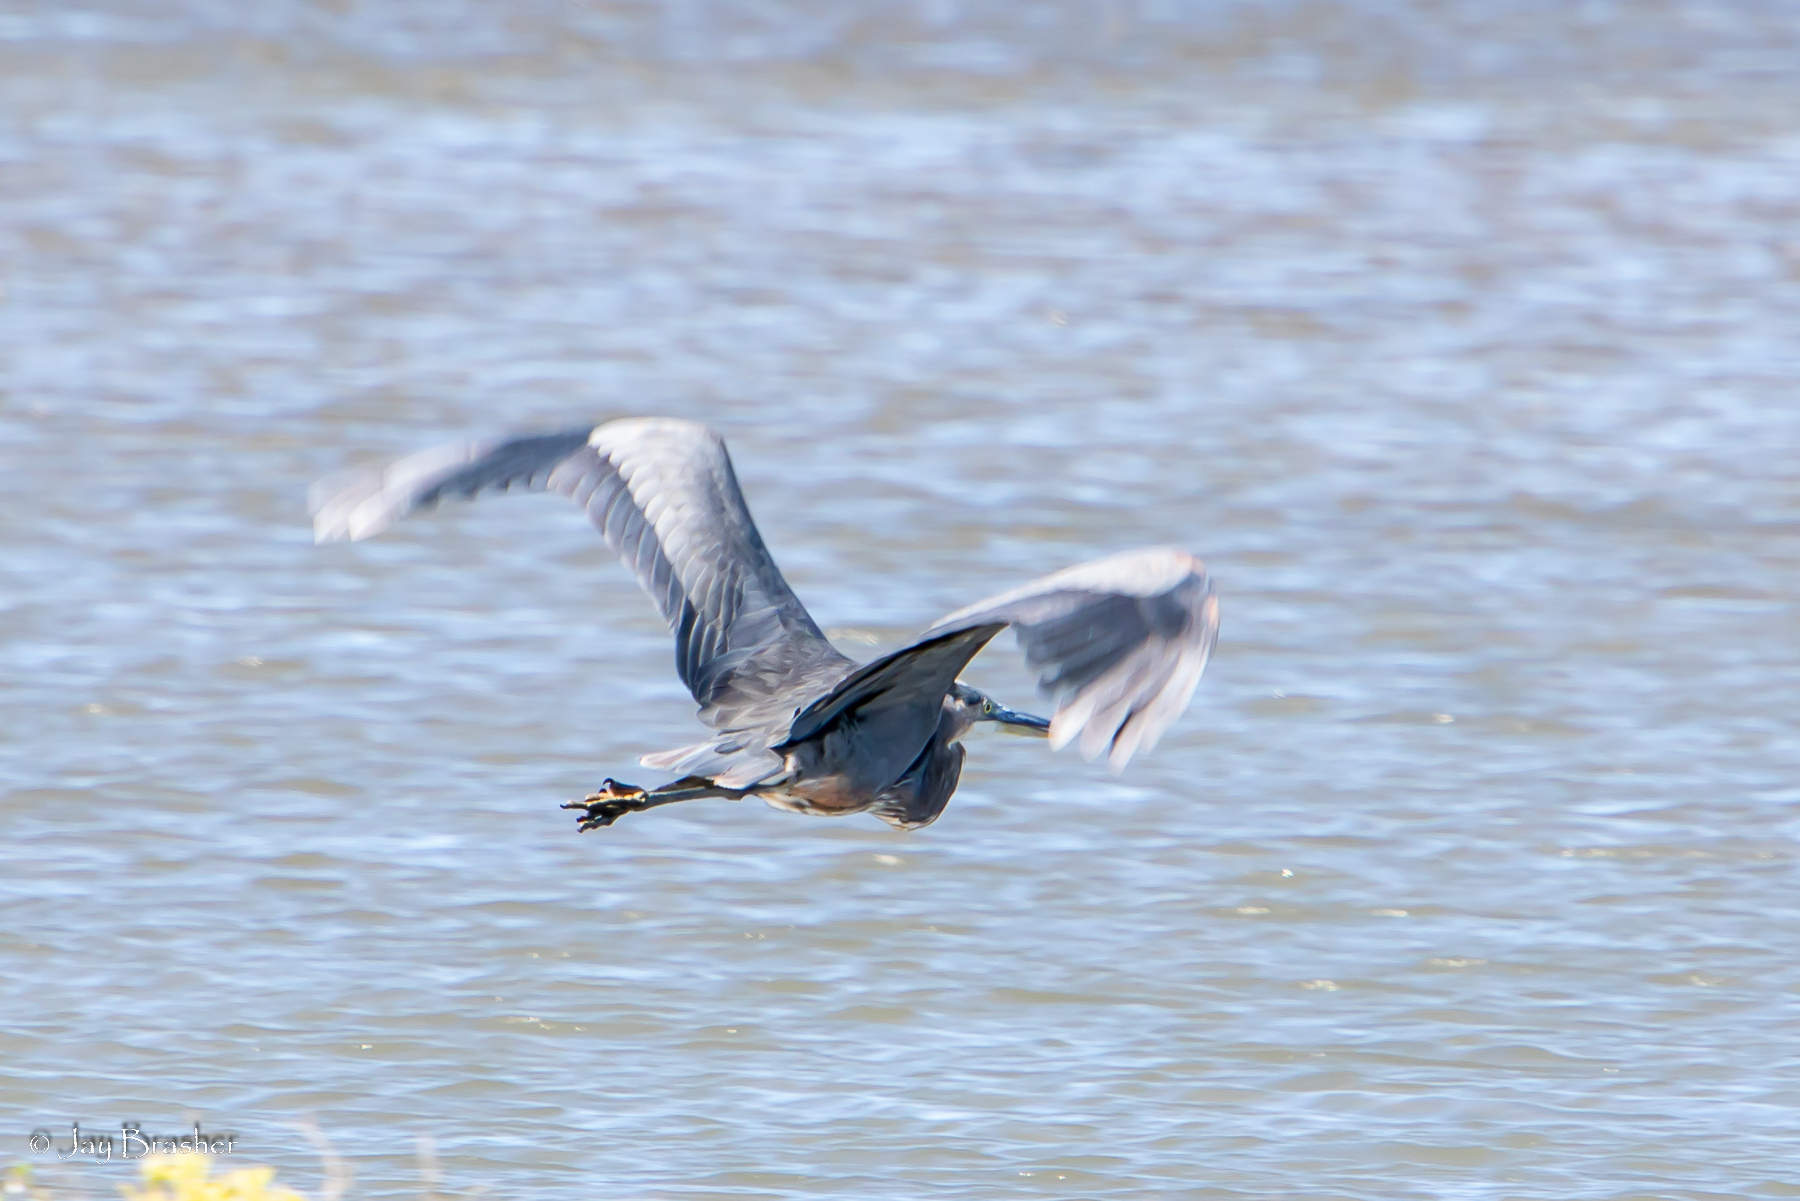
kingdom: Animalia
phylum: Chordata
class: Aves
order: Pelecaniformes
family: Ardeidae
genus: Ardea
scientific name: Ardea herodias
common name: Great blue heron
